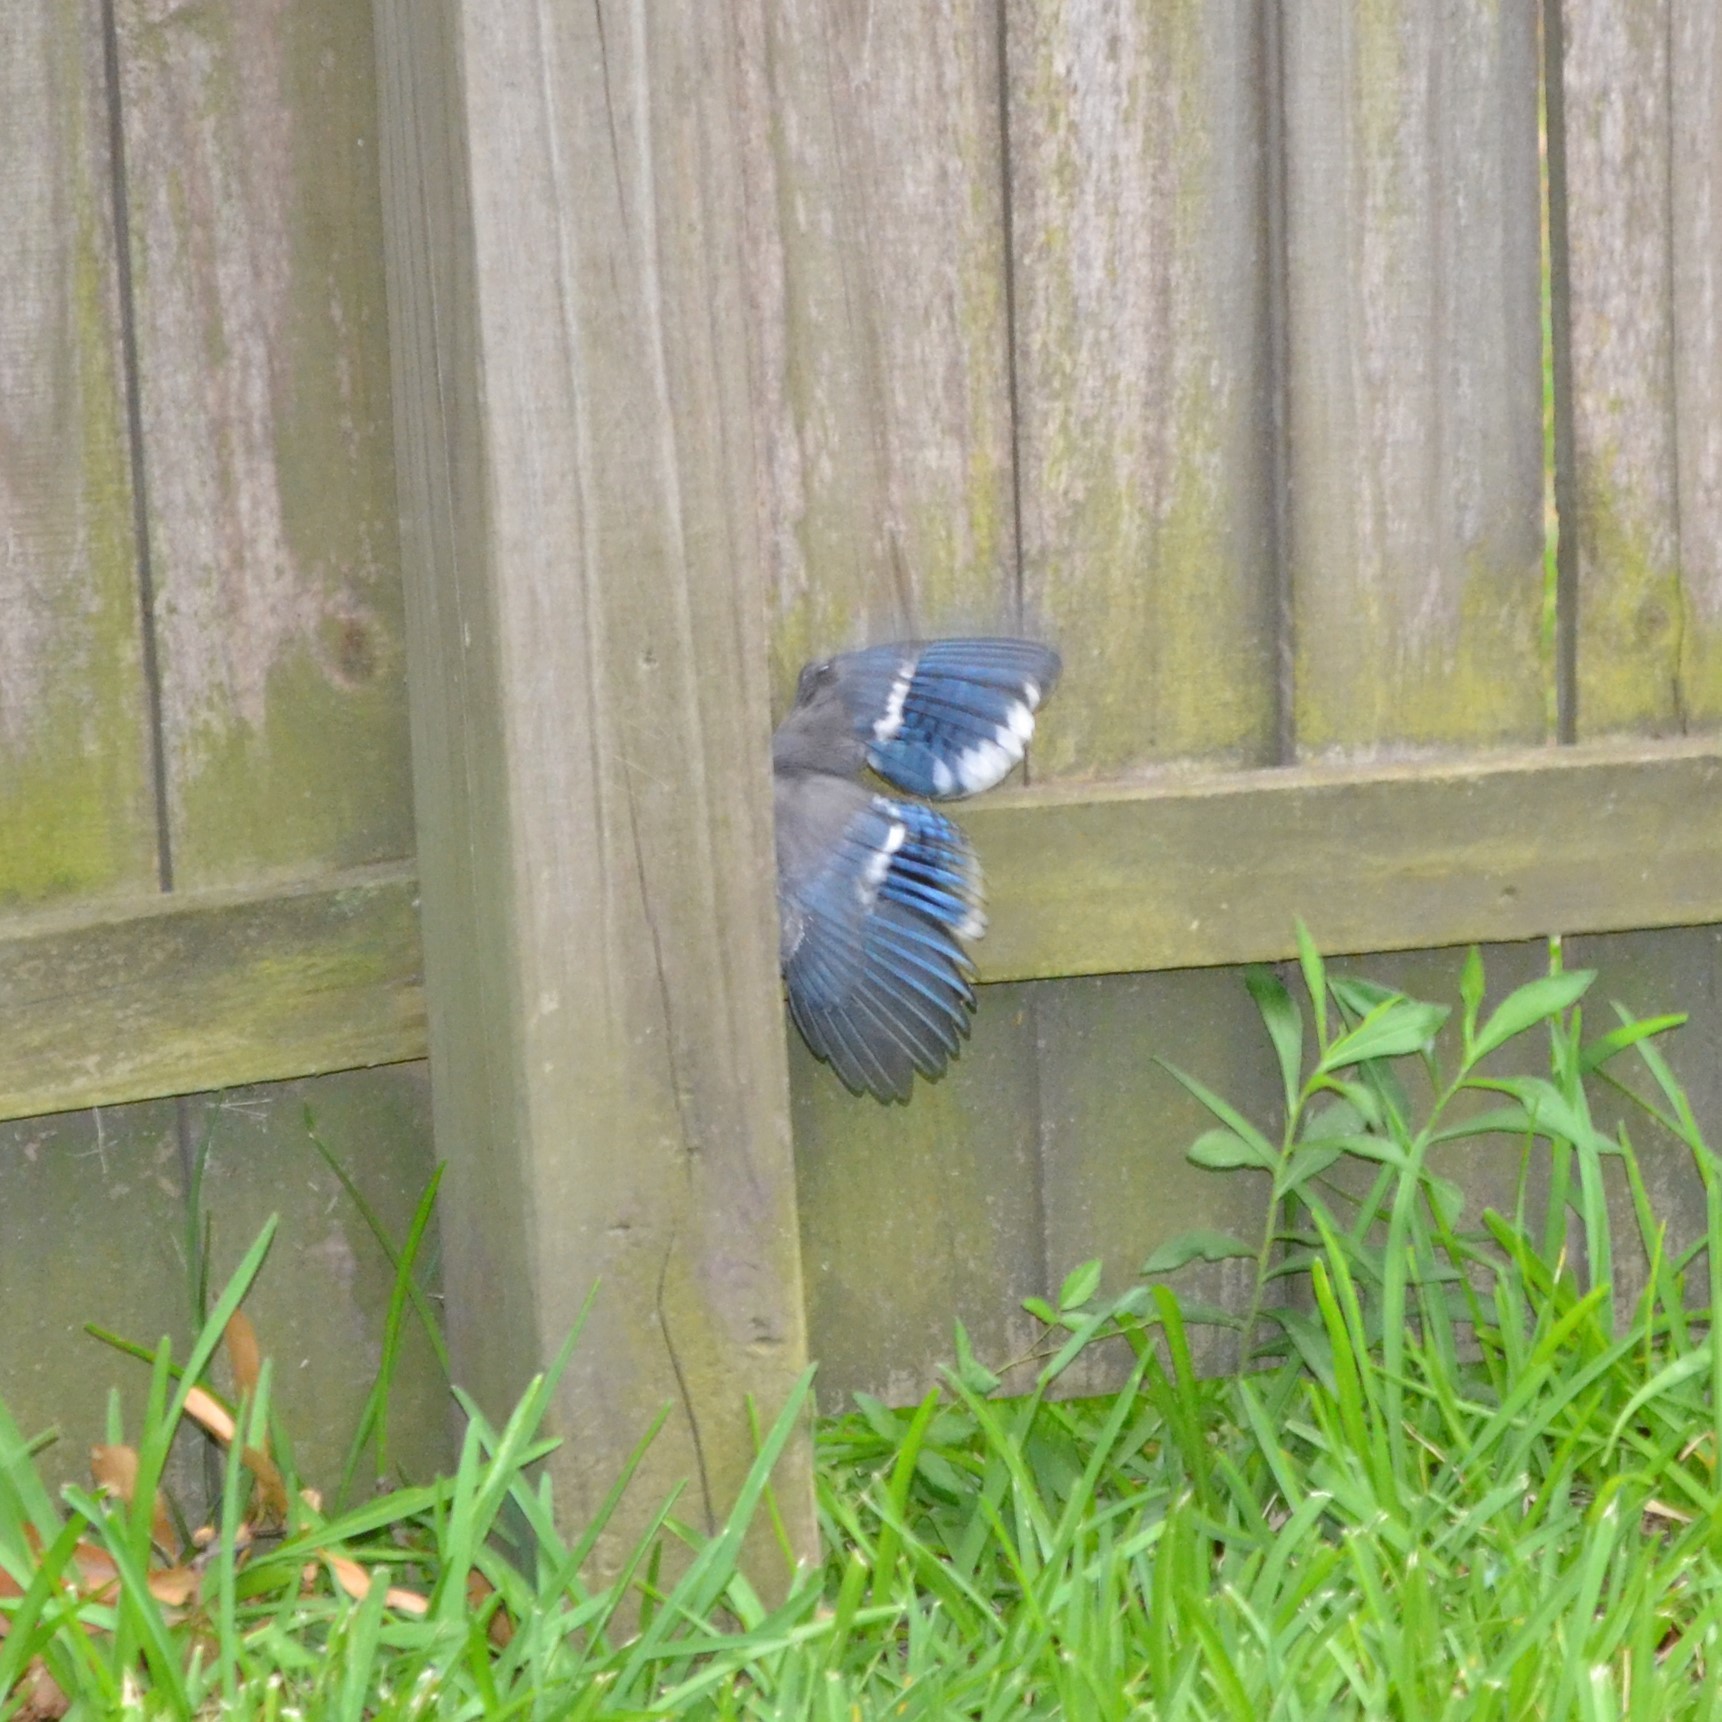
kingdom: Animalia
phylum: Chordata
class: Aves
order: Passeriformes
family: Corvidae
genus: Cyanocitta
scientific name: Cyanocitta cristata
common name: Blue jay
